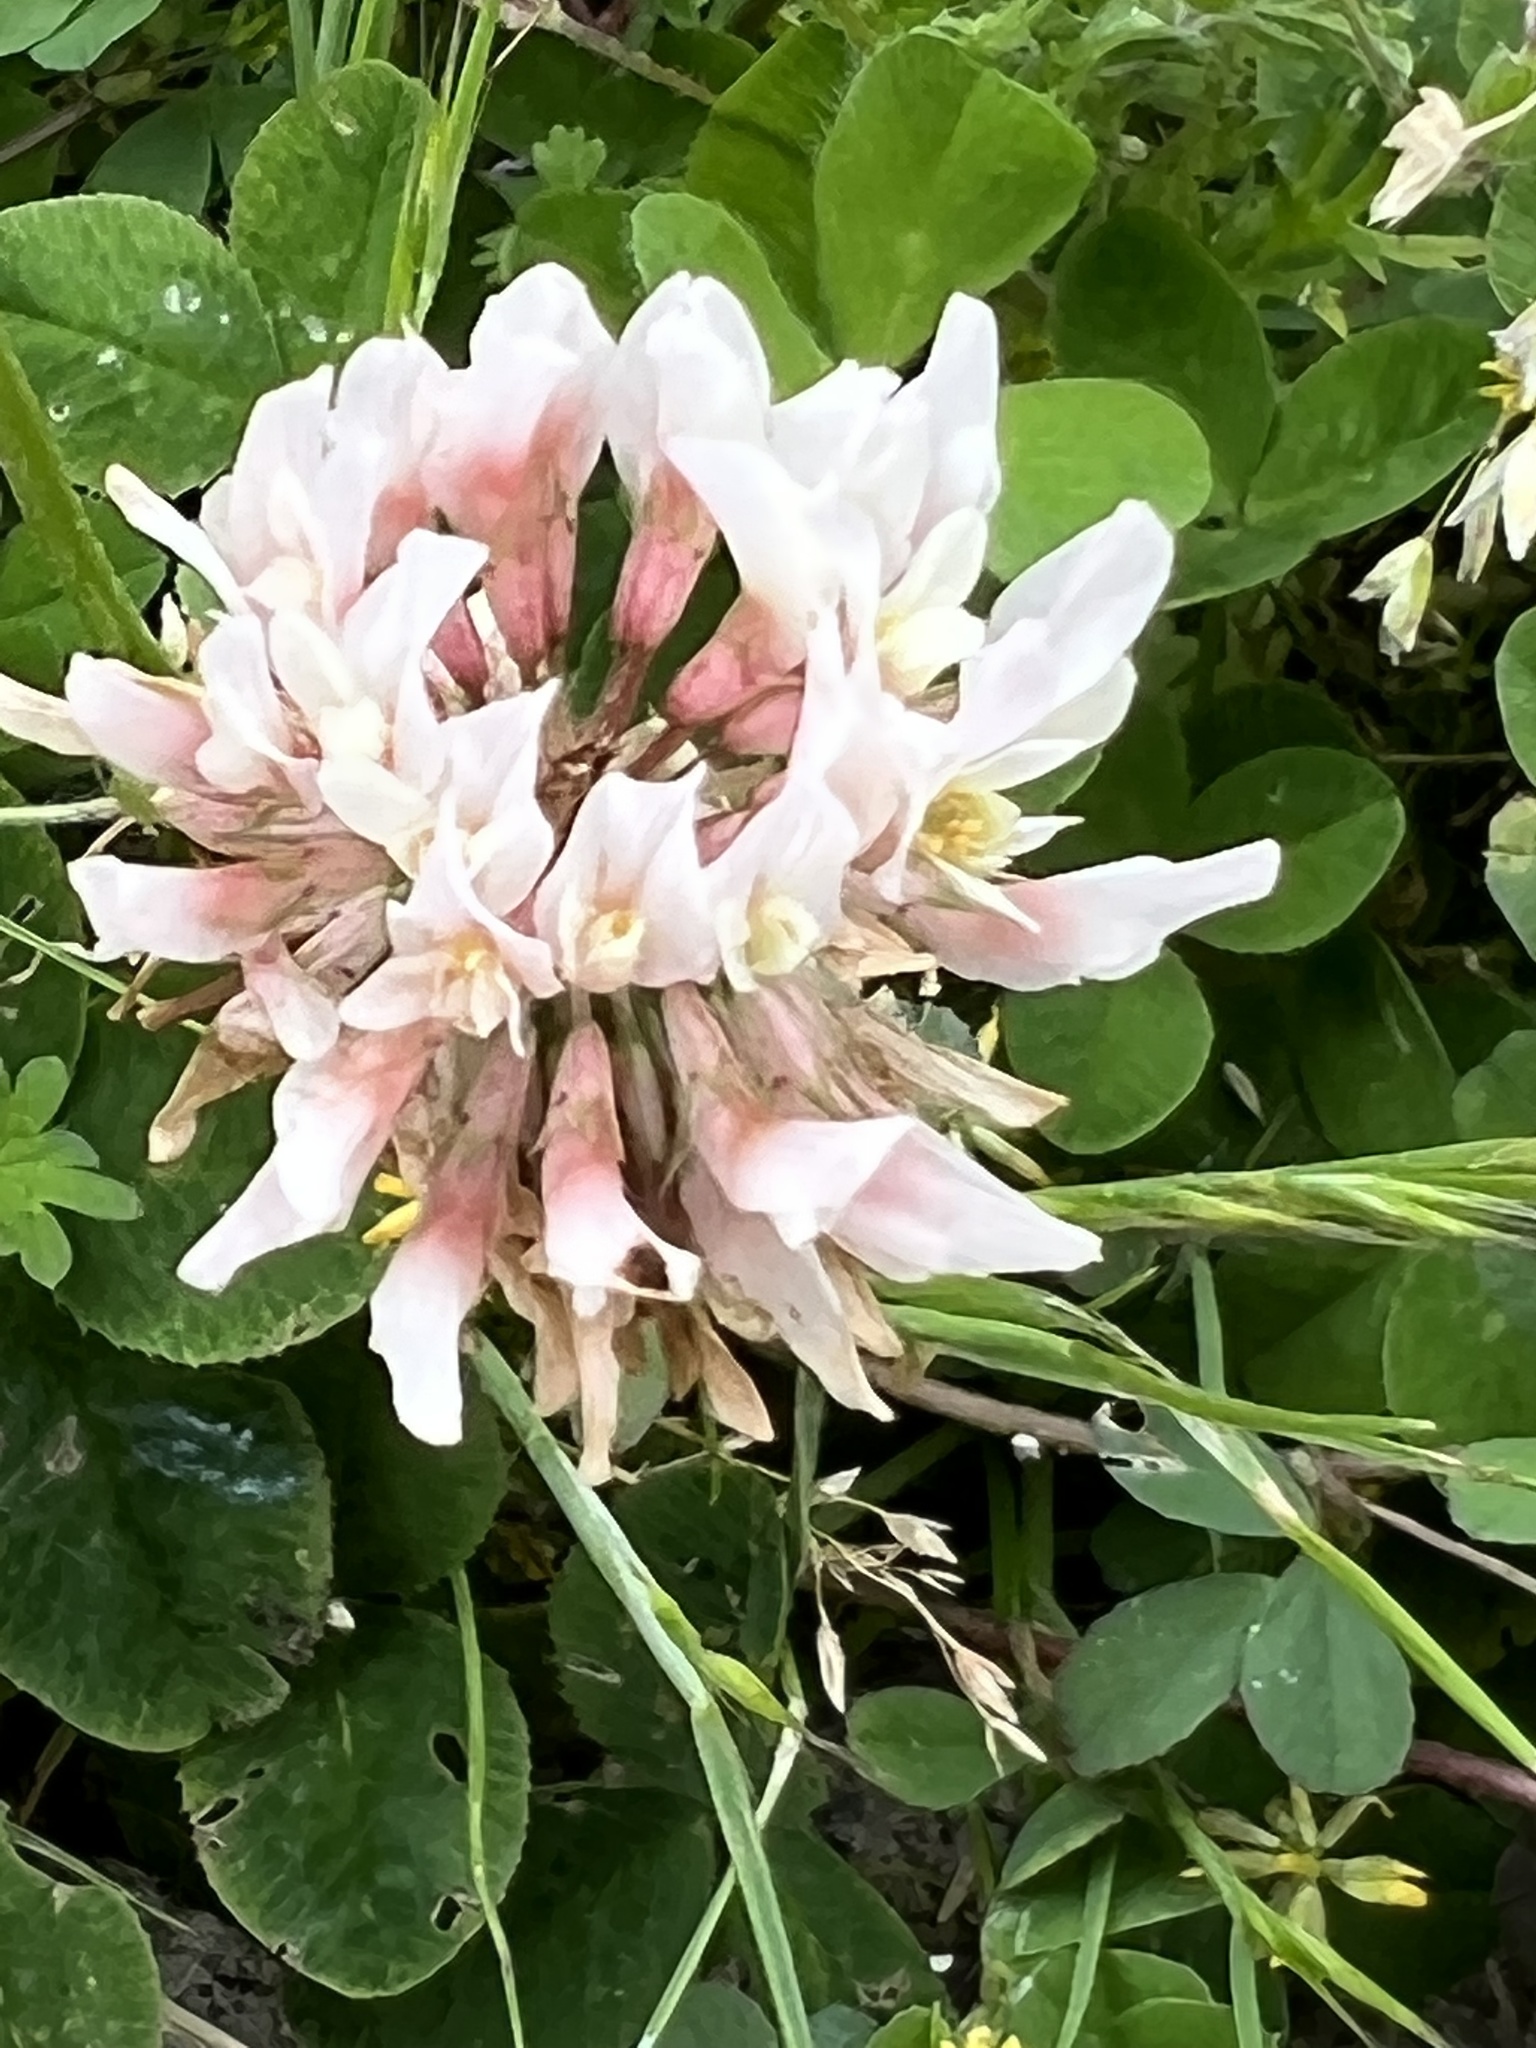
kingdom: Plantae
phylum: Tracheophyta
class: Magnoliopsida
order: Fabales
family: Fabaceae
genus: Trifolium
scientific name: Trifolium repens
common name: White clover
